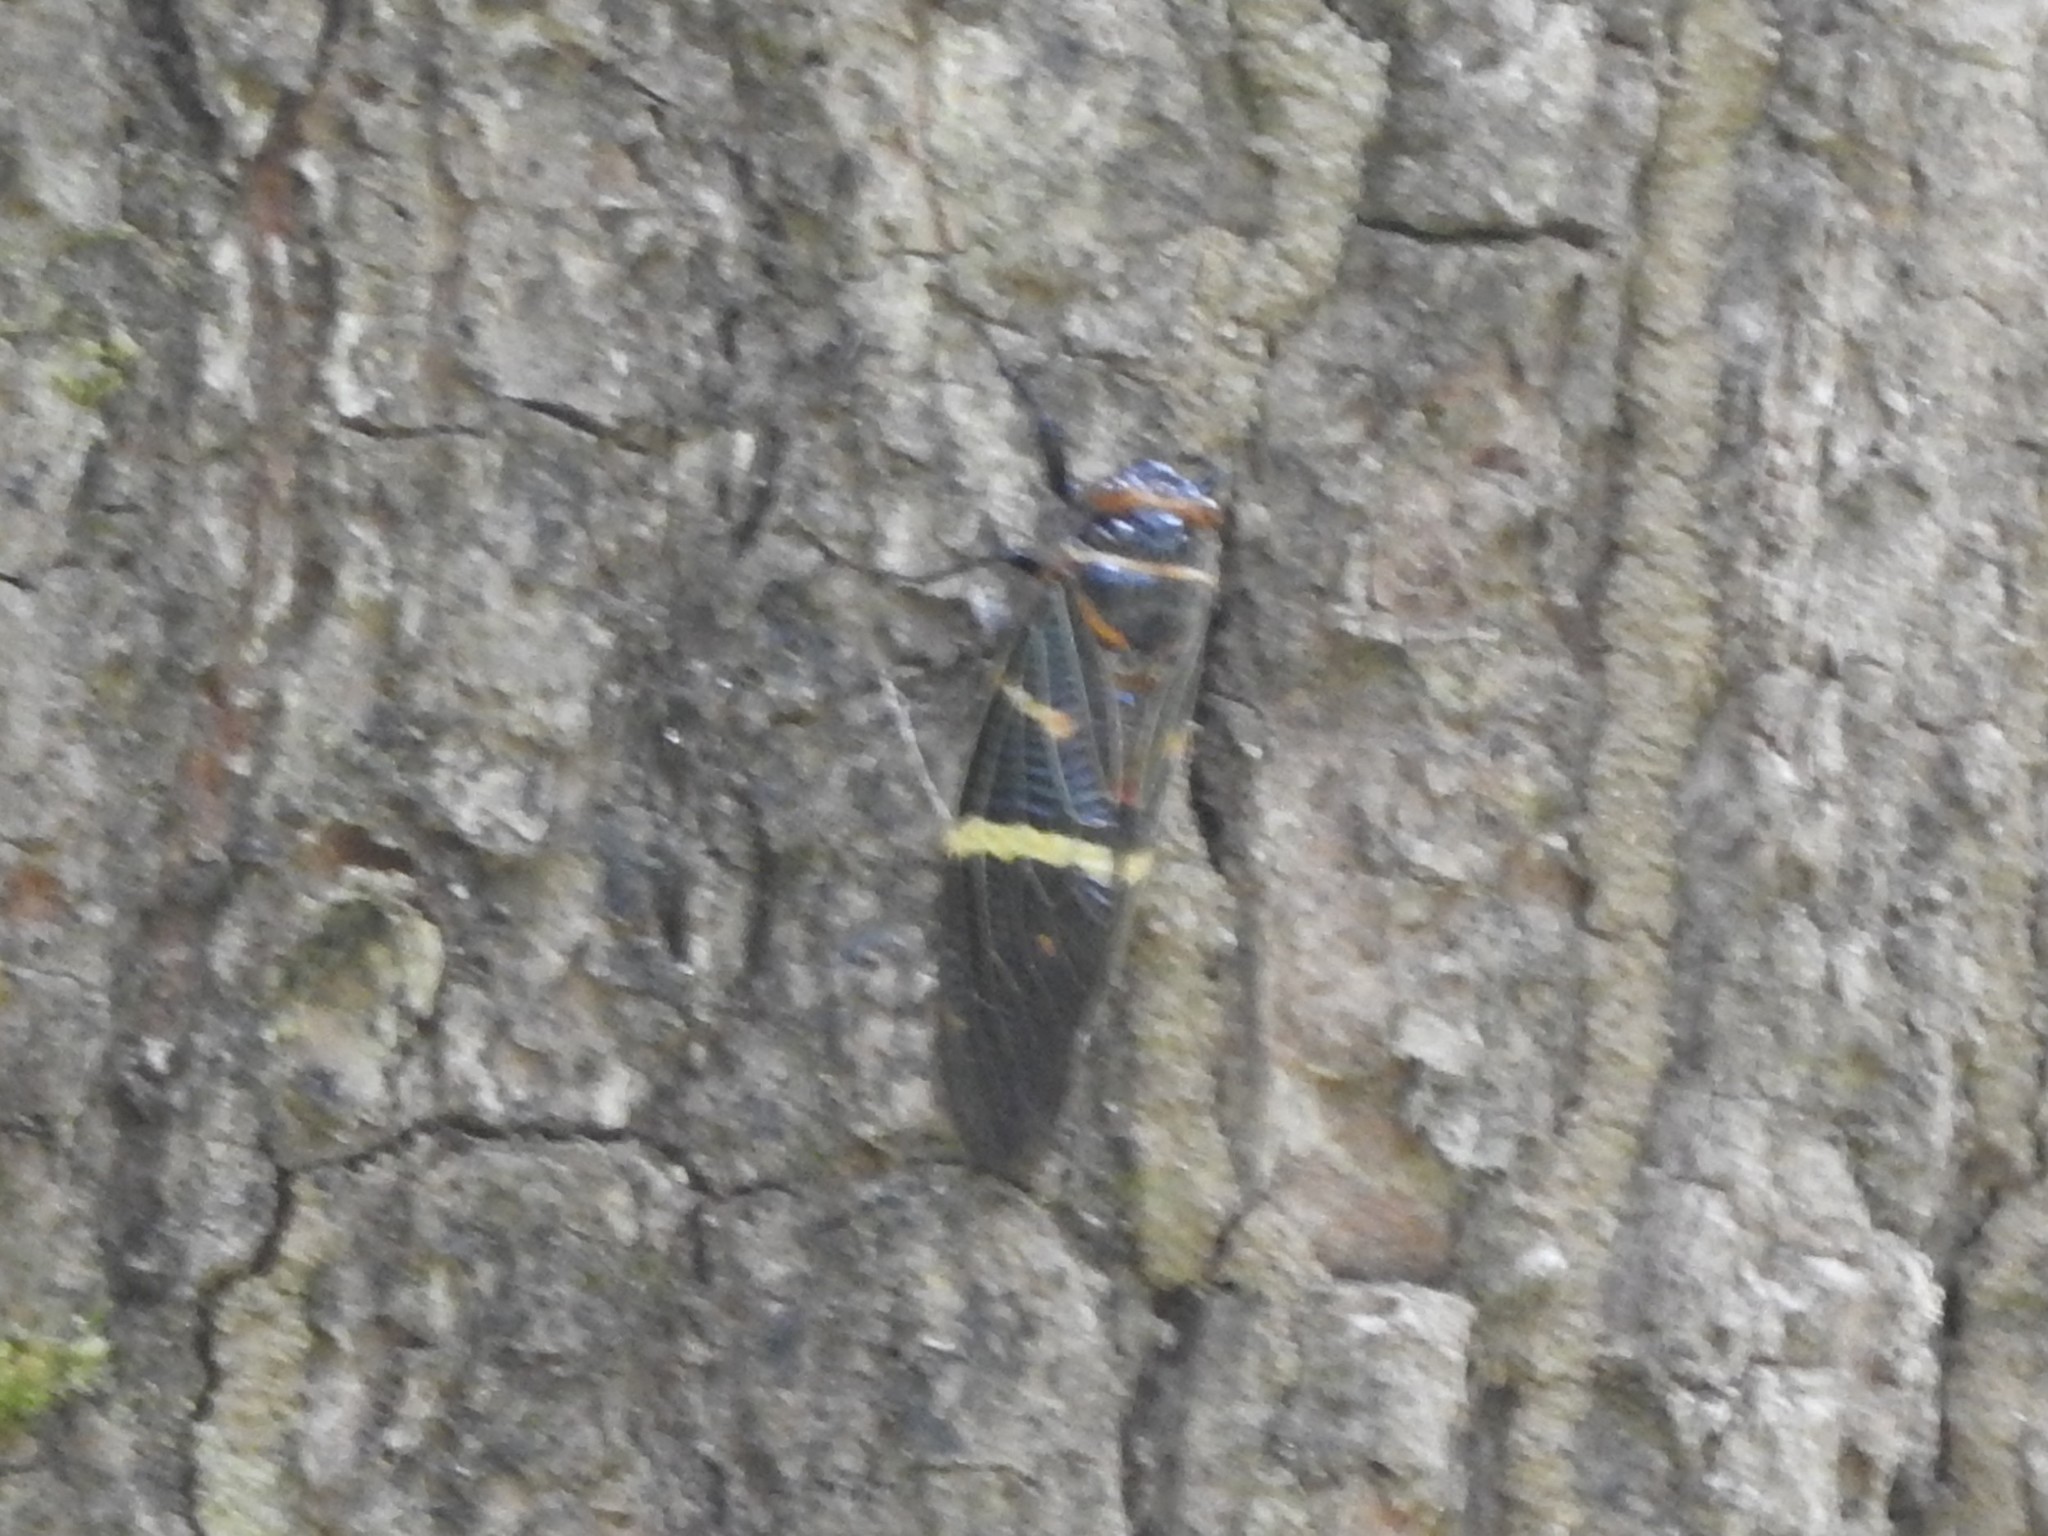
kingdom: Animalia
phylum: Arthropoda
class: Insecta
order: Hemiptera
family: Cicadidae
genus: Gaeana
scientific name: Gaeana atkinsoni
